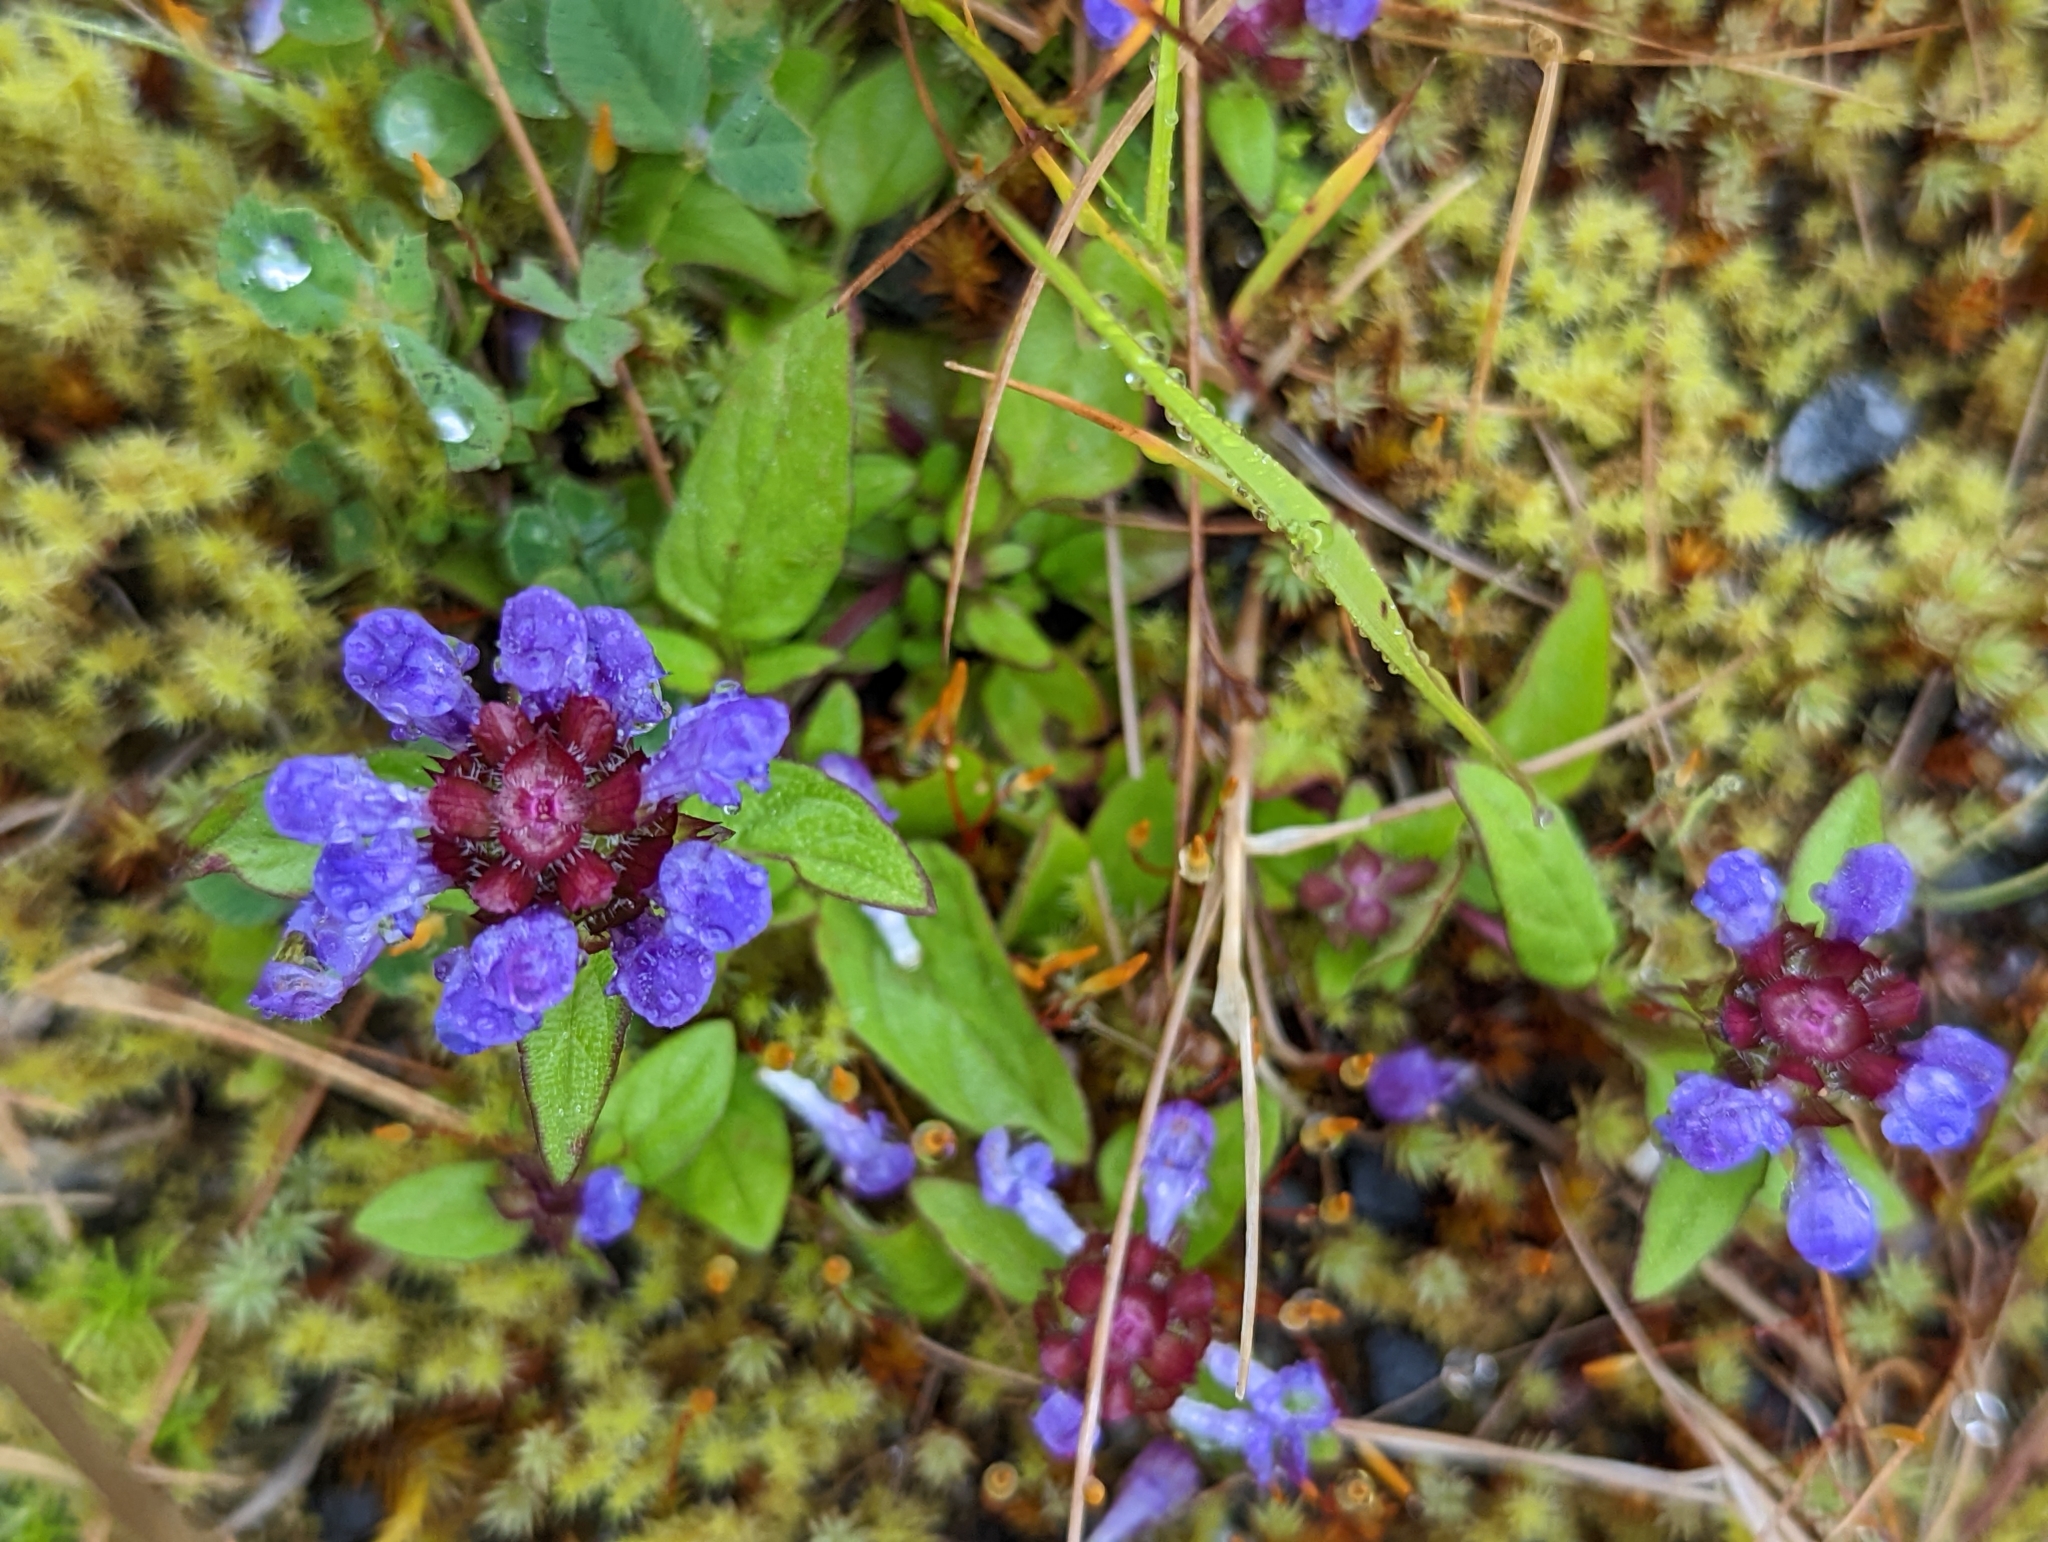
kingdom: Plantae
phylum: Tracheophyta
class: Magnoliopsida
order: Lamiales
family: Lamiaceae
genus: Prunella
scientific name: Prunella vulgaris
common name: Heal-all
